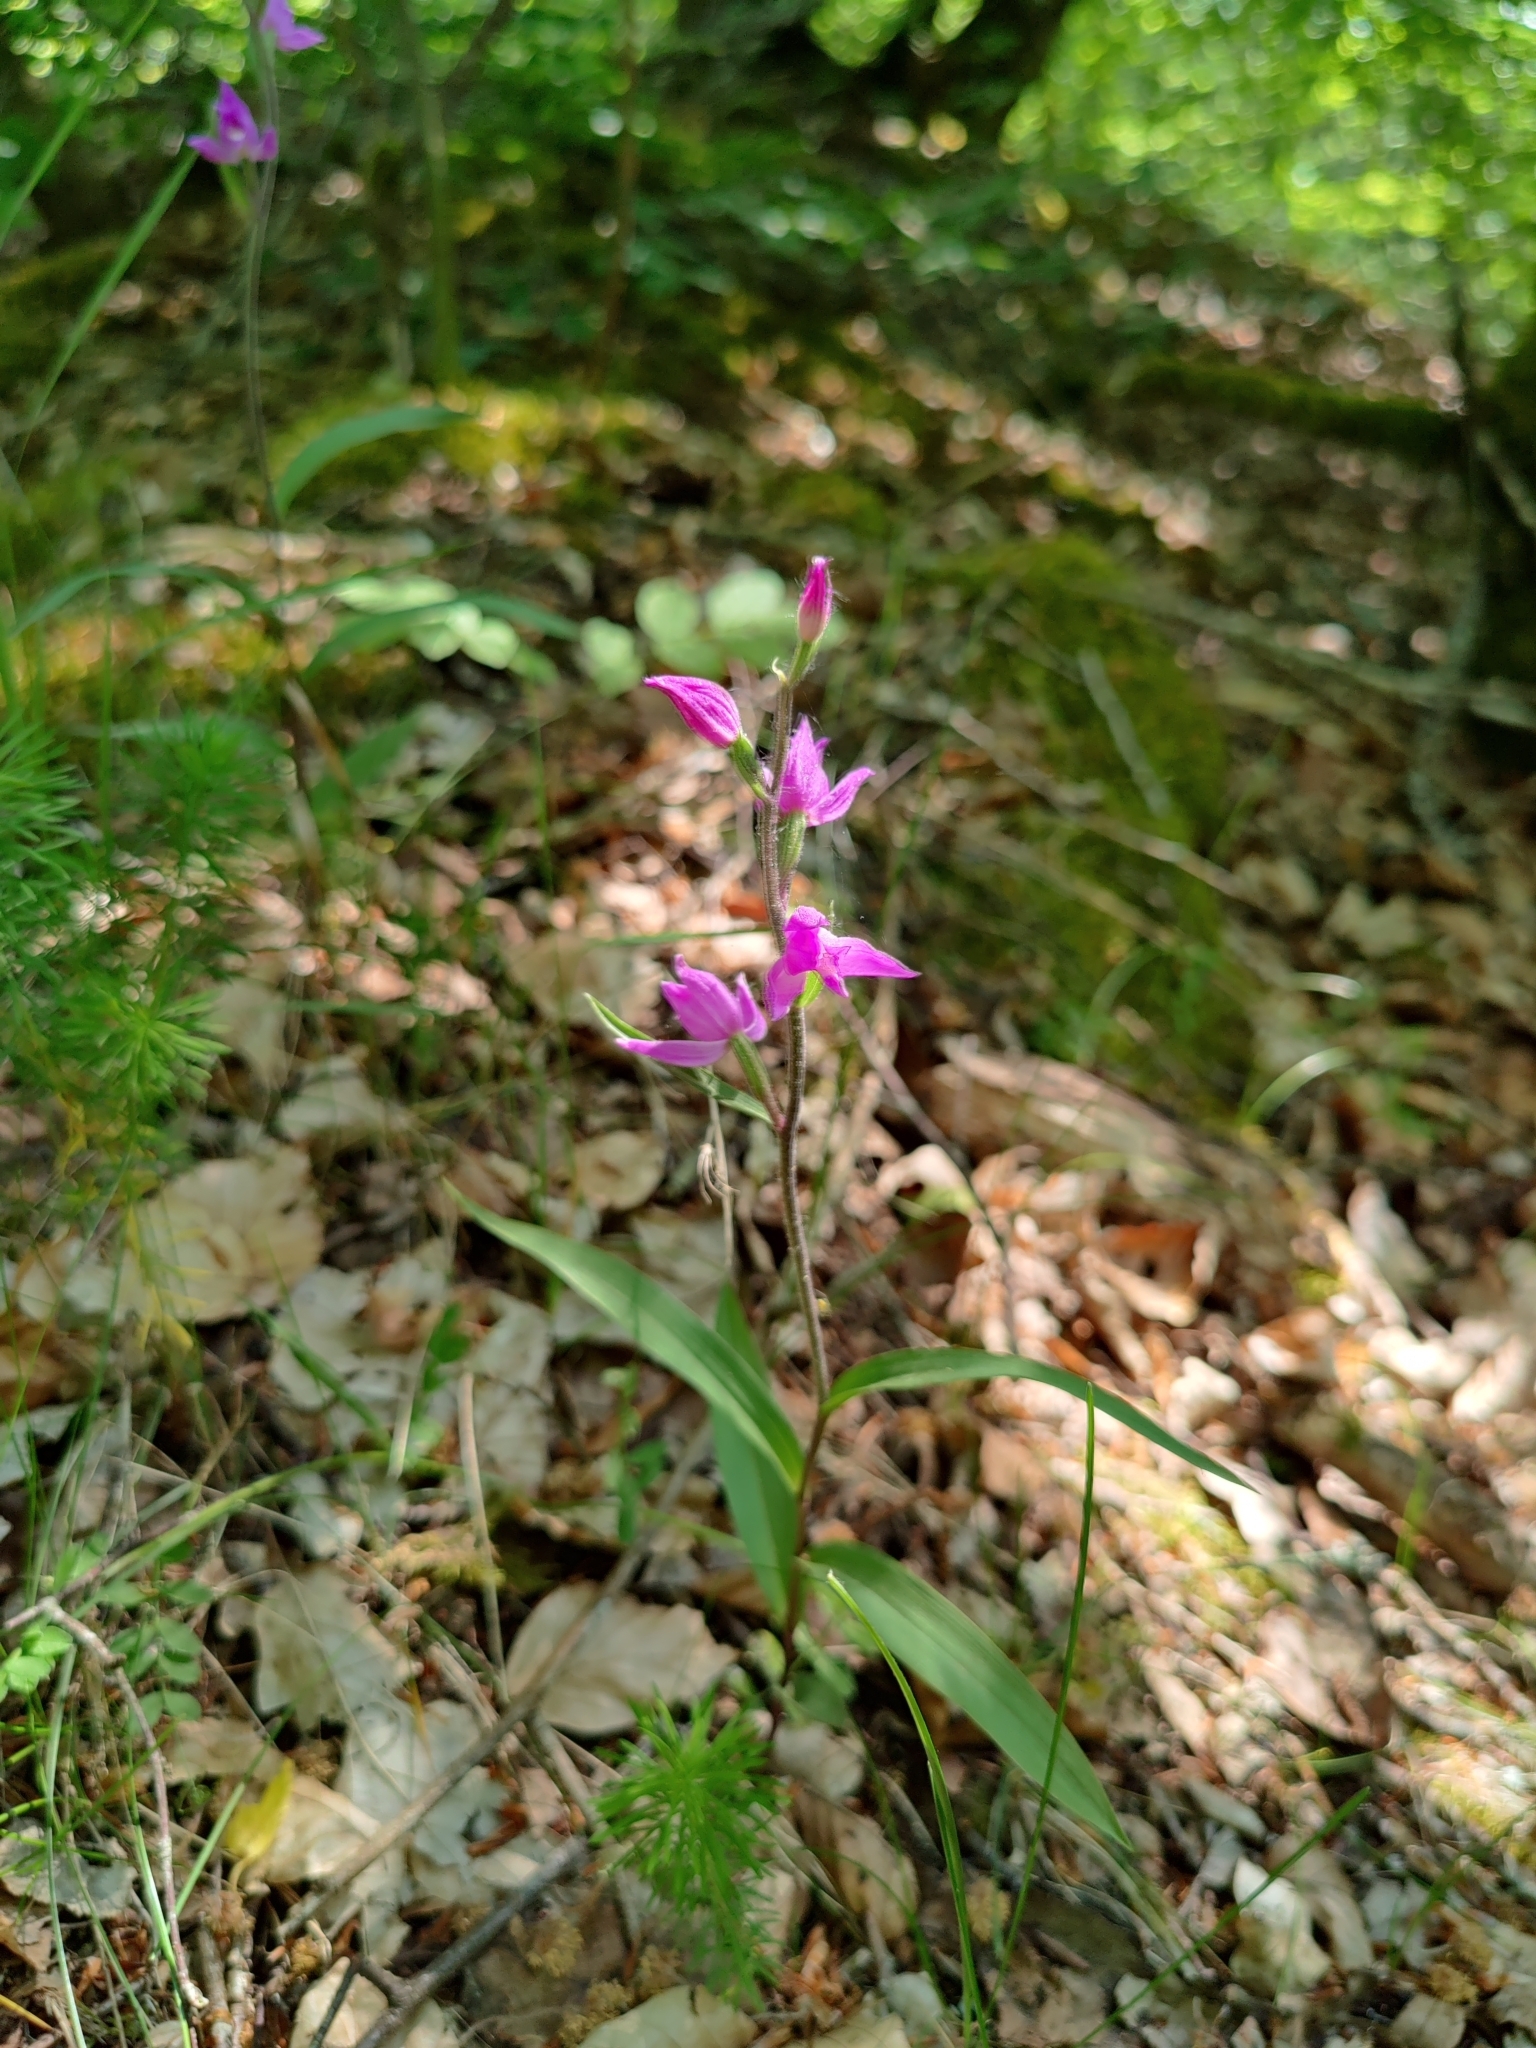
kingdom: Plantae
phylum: Tracheophyta
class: Liliopsida
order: Asparagales
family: Orchidaceae
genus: Cephalanthera
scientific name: Cephalanthera rubra
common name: Red helleborine
